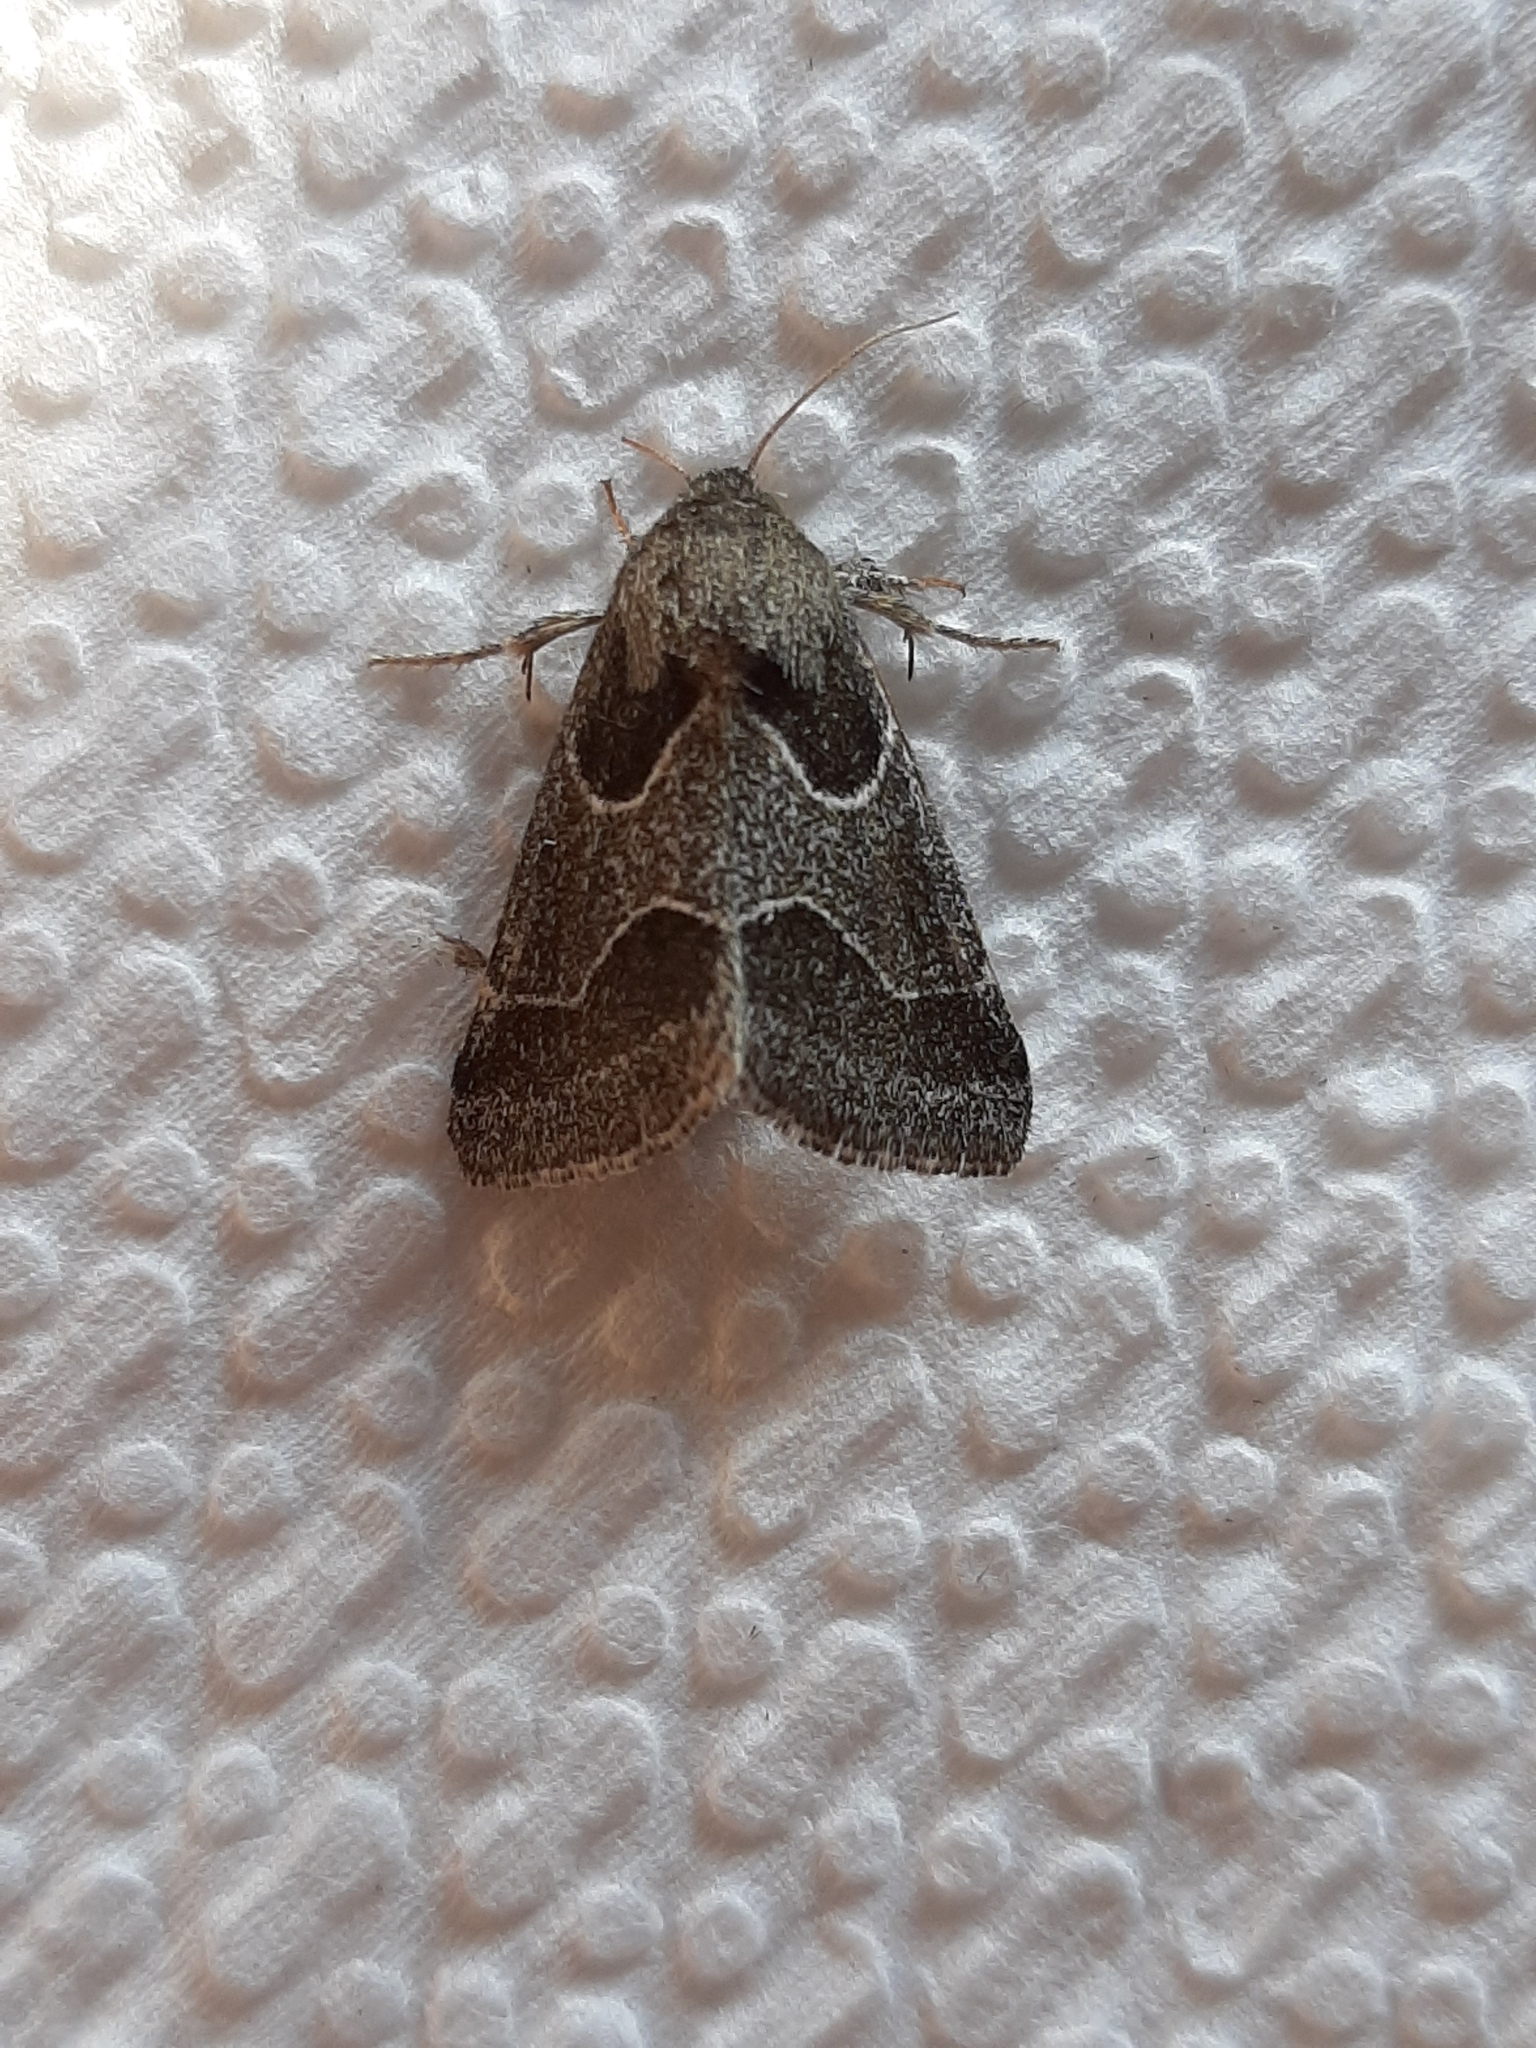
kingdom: Animalia
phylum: Arthropoda
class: Insecta
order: Lepidoptera
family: Noctuidae
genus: Schinia
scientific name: Schinia rivulosa
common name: Scarce meal-moth
